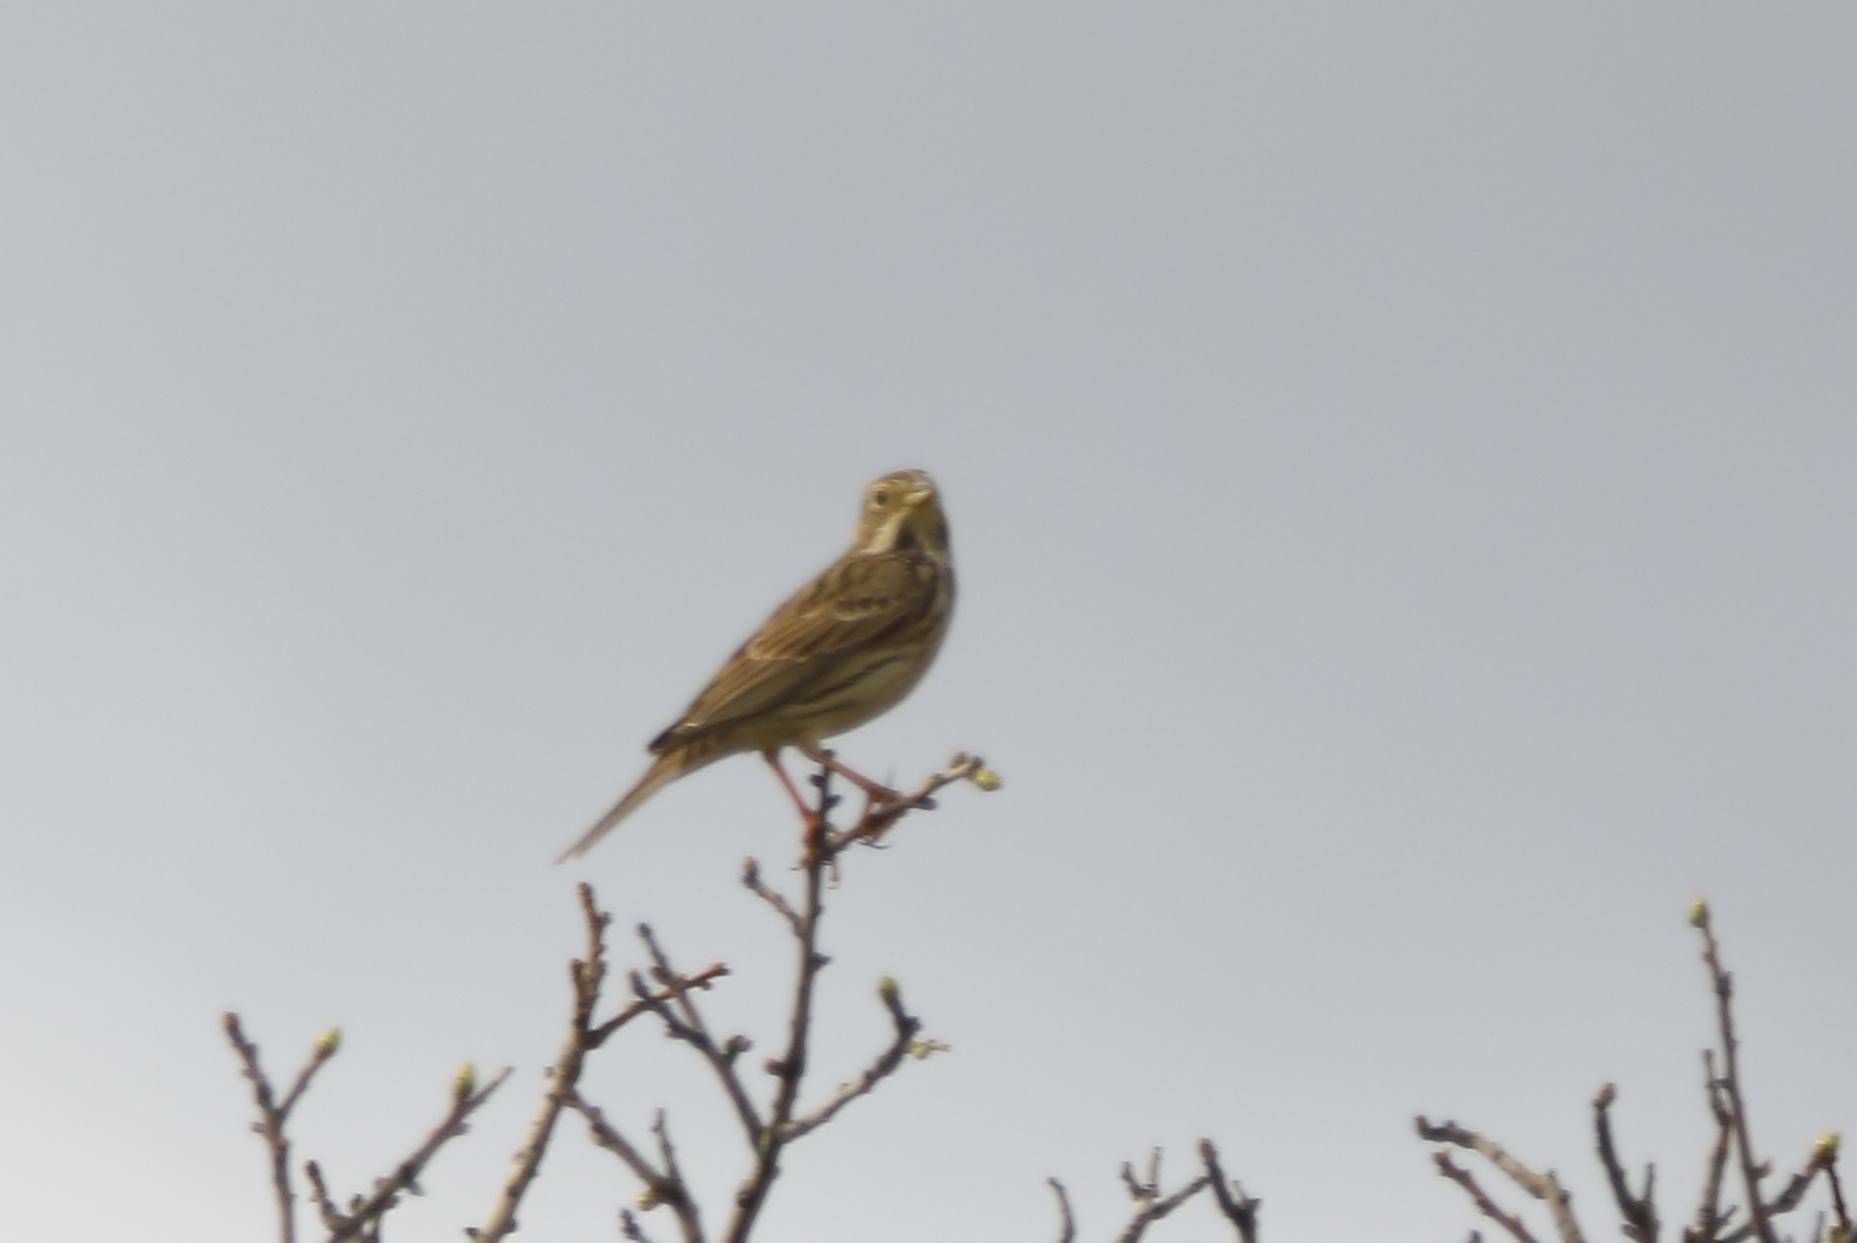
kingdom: Animalia
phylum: Chordata
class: Aves
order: Passeriformes
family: Emberizidae
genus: Emberiza
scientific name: Emberiza calandra
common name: Corn bunting
